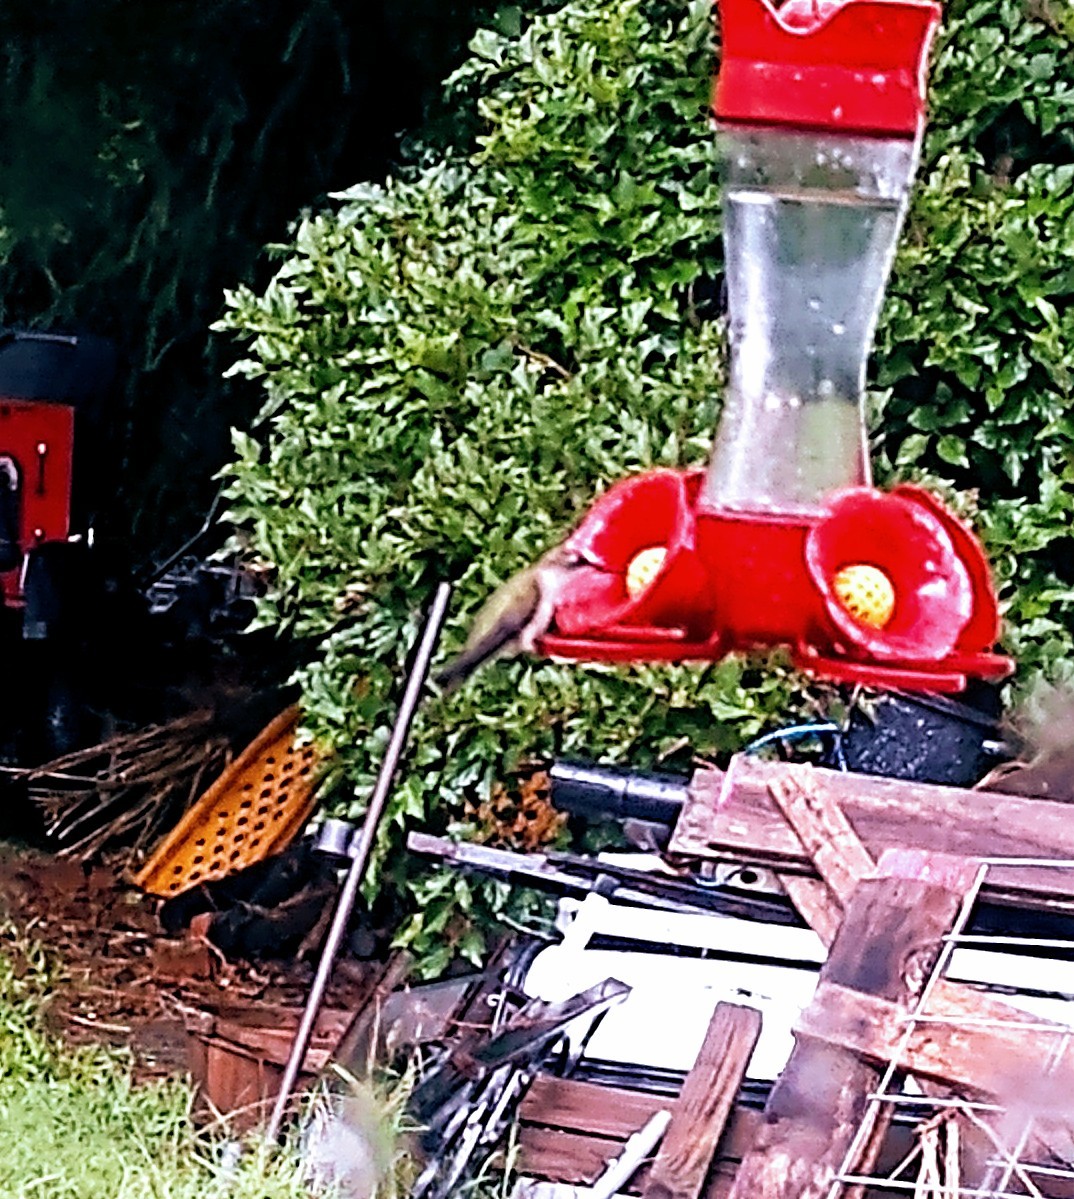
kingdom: Animalia
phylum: Chordata
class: Aves
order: Apodiformes
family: Trochilidae
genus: Archilochus
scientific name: Archilochus colubris
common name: Ruby-throated hummingbird
